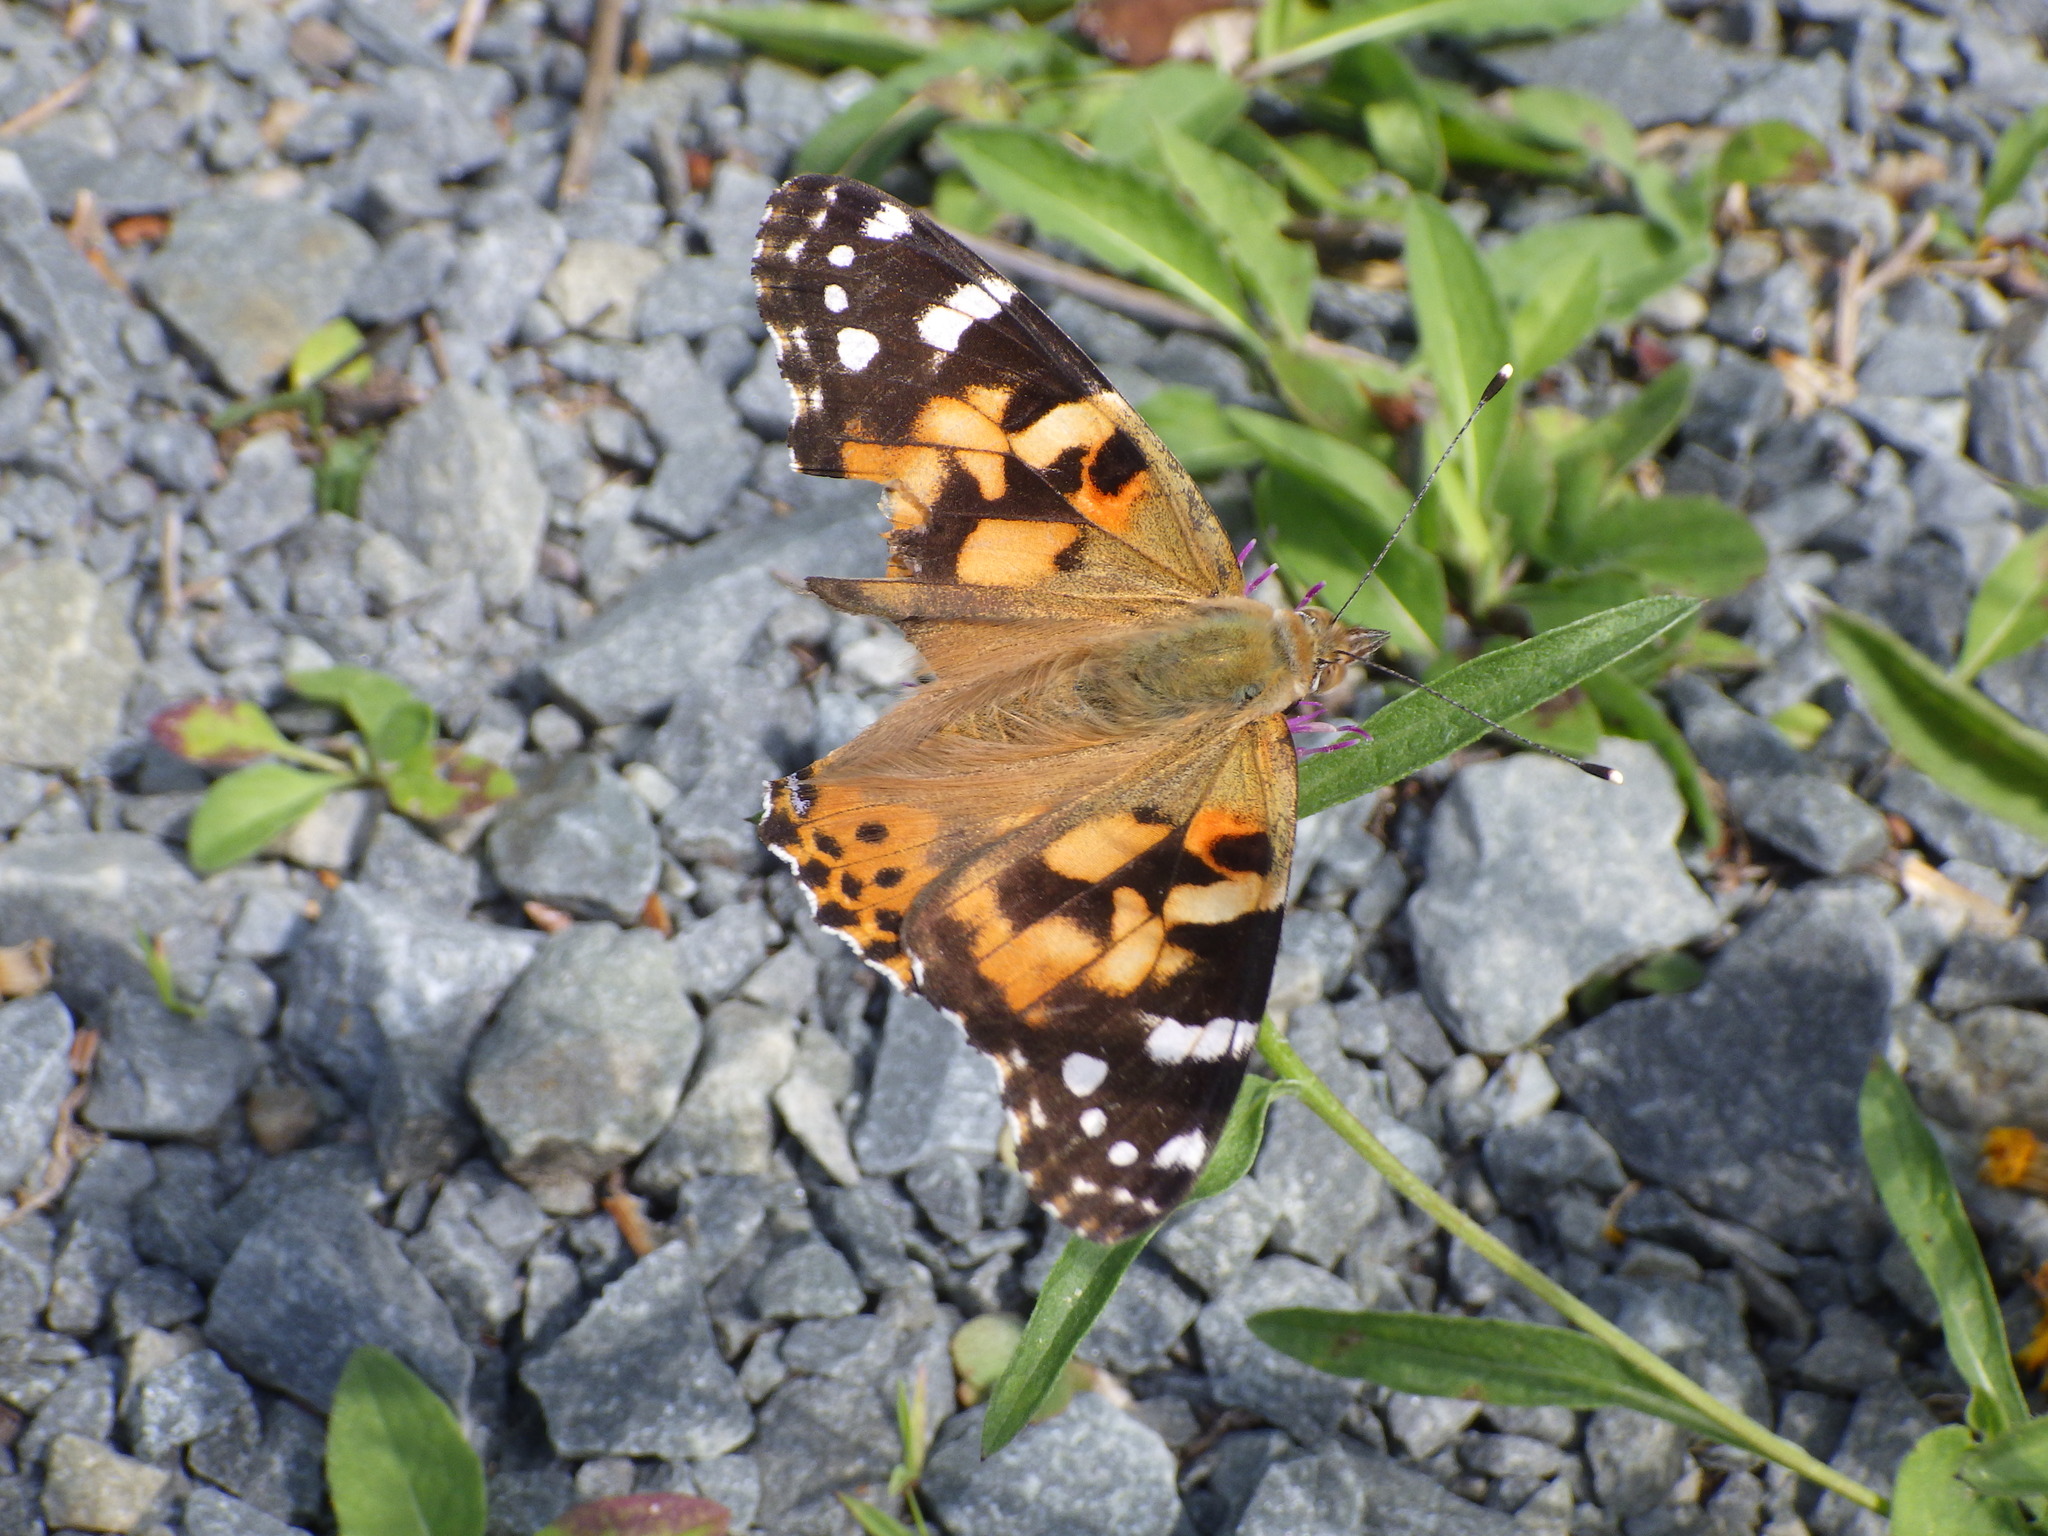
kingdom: Animalia
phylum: Arthropoda
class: Insecta
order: Lepidoptera
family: Nymphalidae
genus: Vanessa
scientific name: Vanessa cardui
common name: Painted lady
